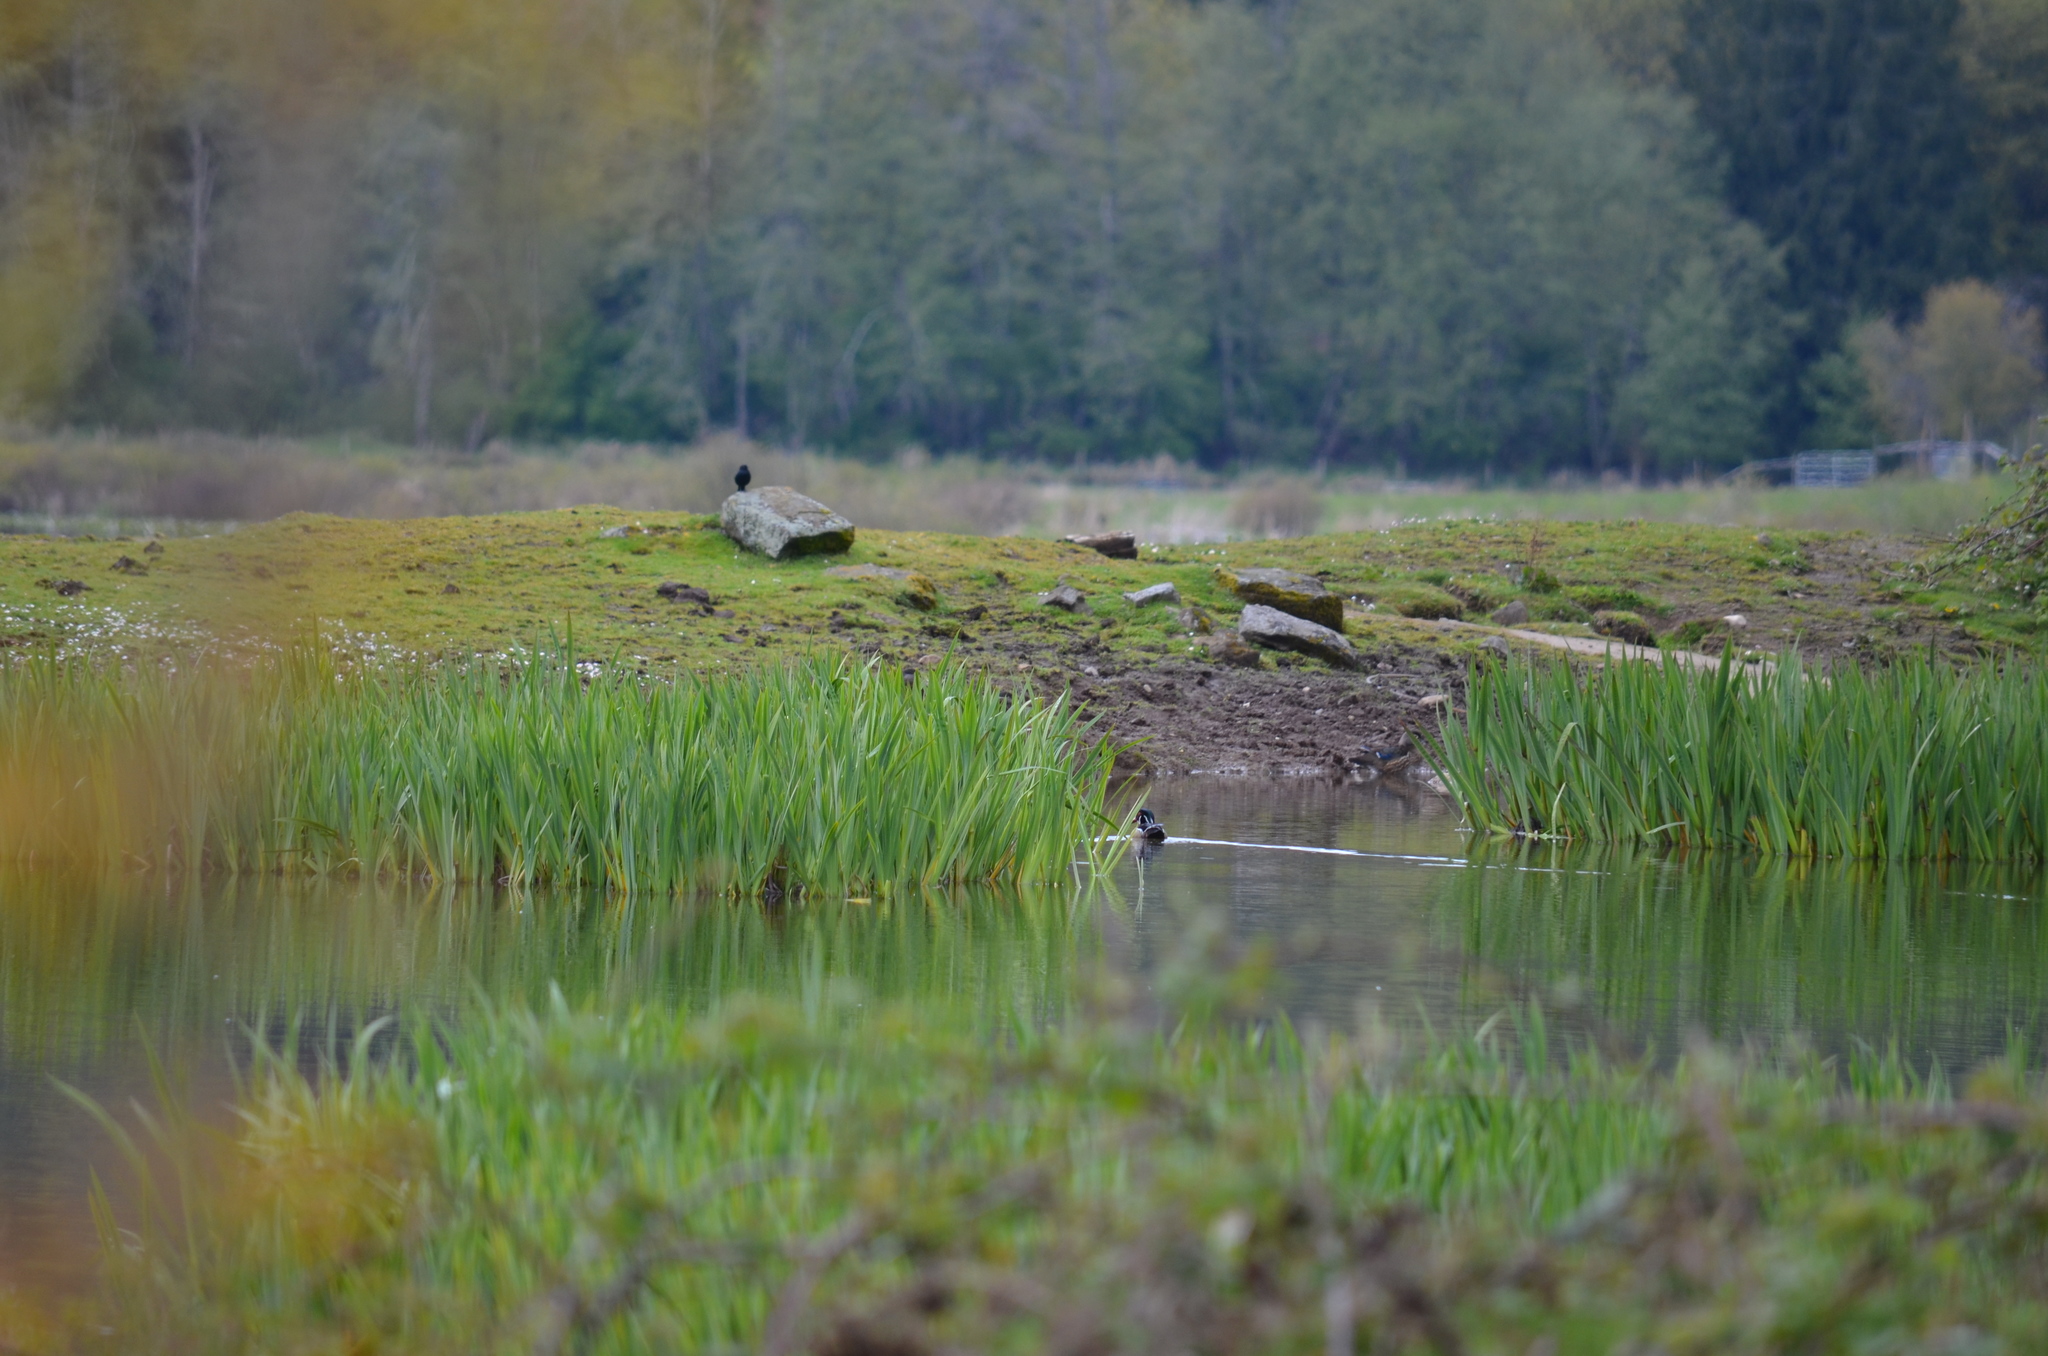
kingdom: Animalia
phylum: Chordata
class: Aves
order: Anseriformes
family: Anatidae
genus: Aix
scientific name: Aix sponsa
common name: Wood duck
